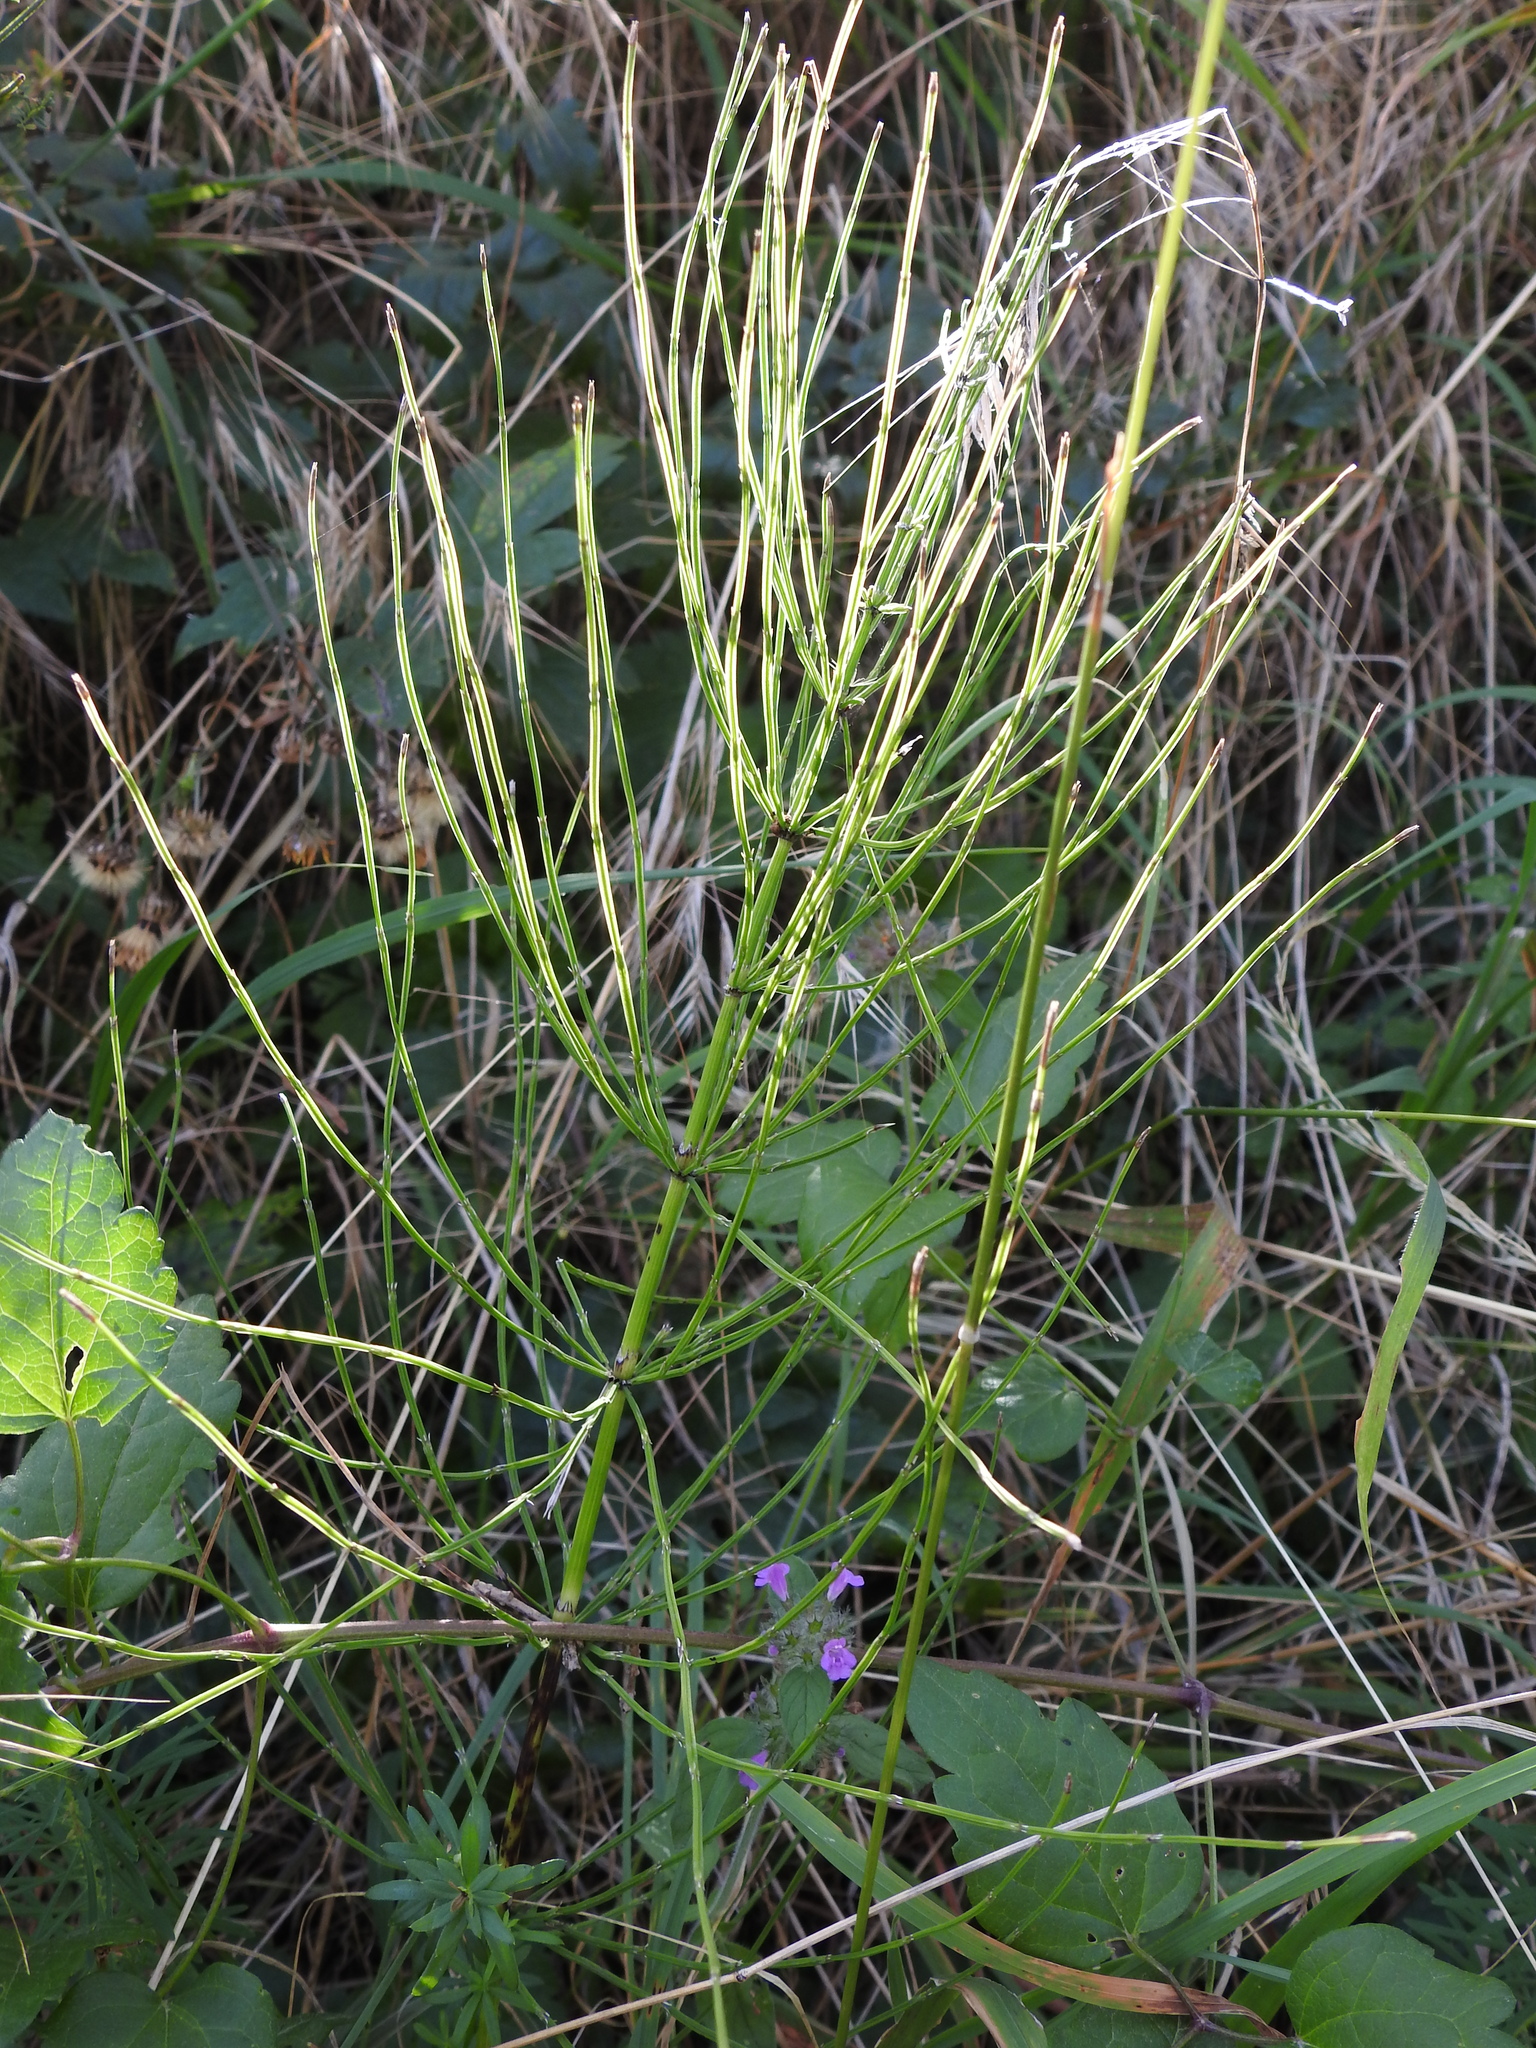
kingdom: Plantae
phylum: Tracheophyta
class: Polypodiopsida
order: Equisetales
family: Equisetaceae
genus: Equisetum
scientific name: Equisetum arvense
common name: Field horsetail
